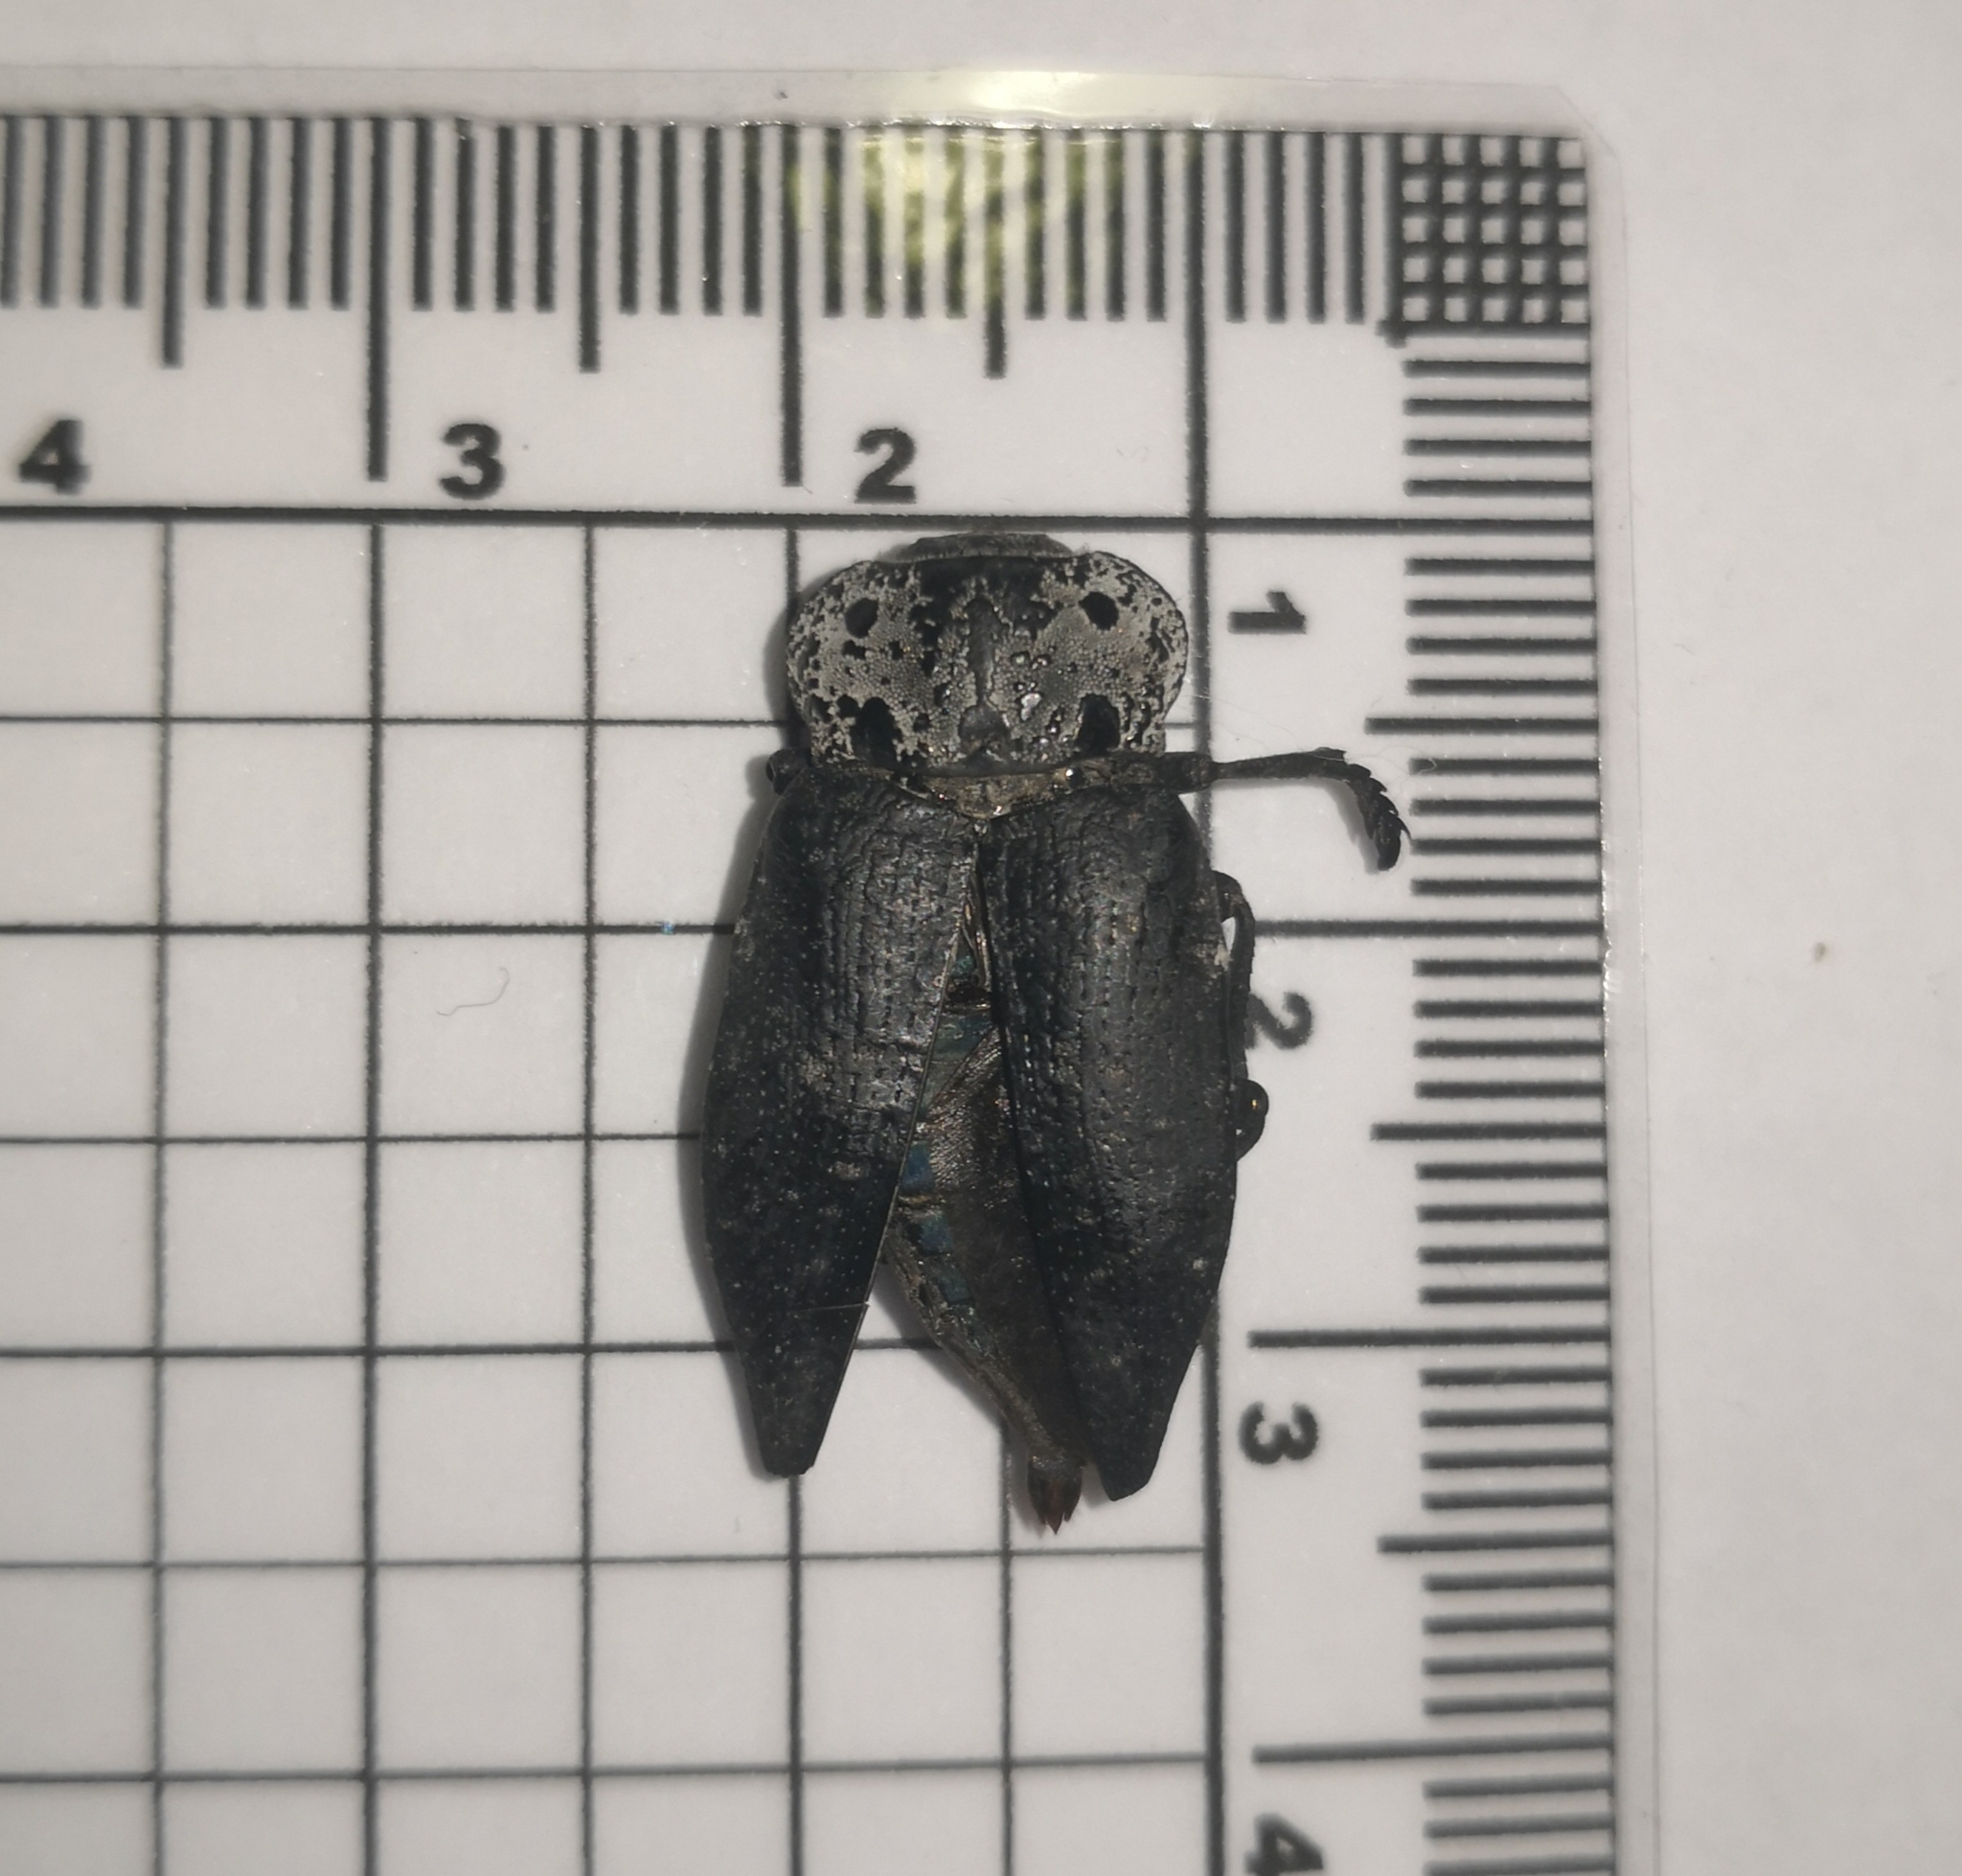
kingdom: Animalia
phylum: Arthropoda
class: Insecta
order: Coleoptera
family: Buprestidae
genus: Capnodis
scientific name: Capnodis tenebrionis
